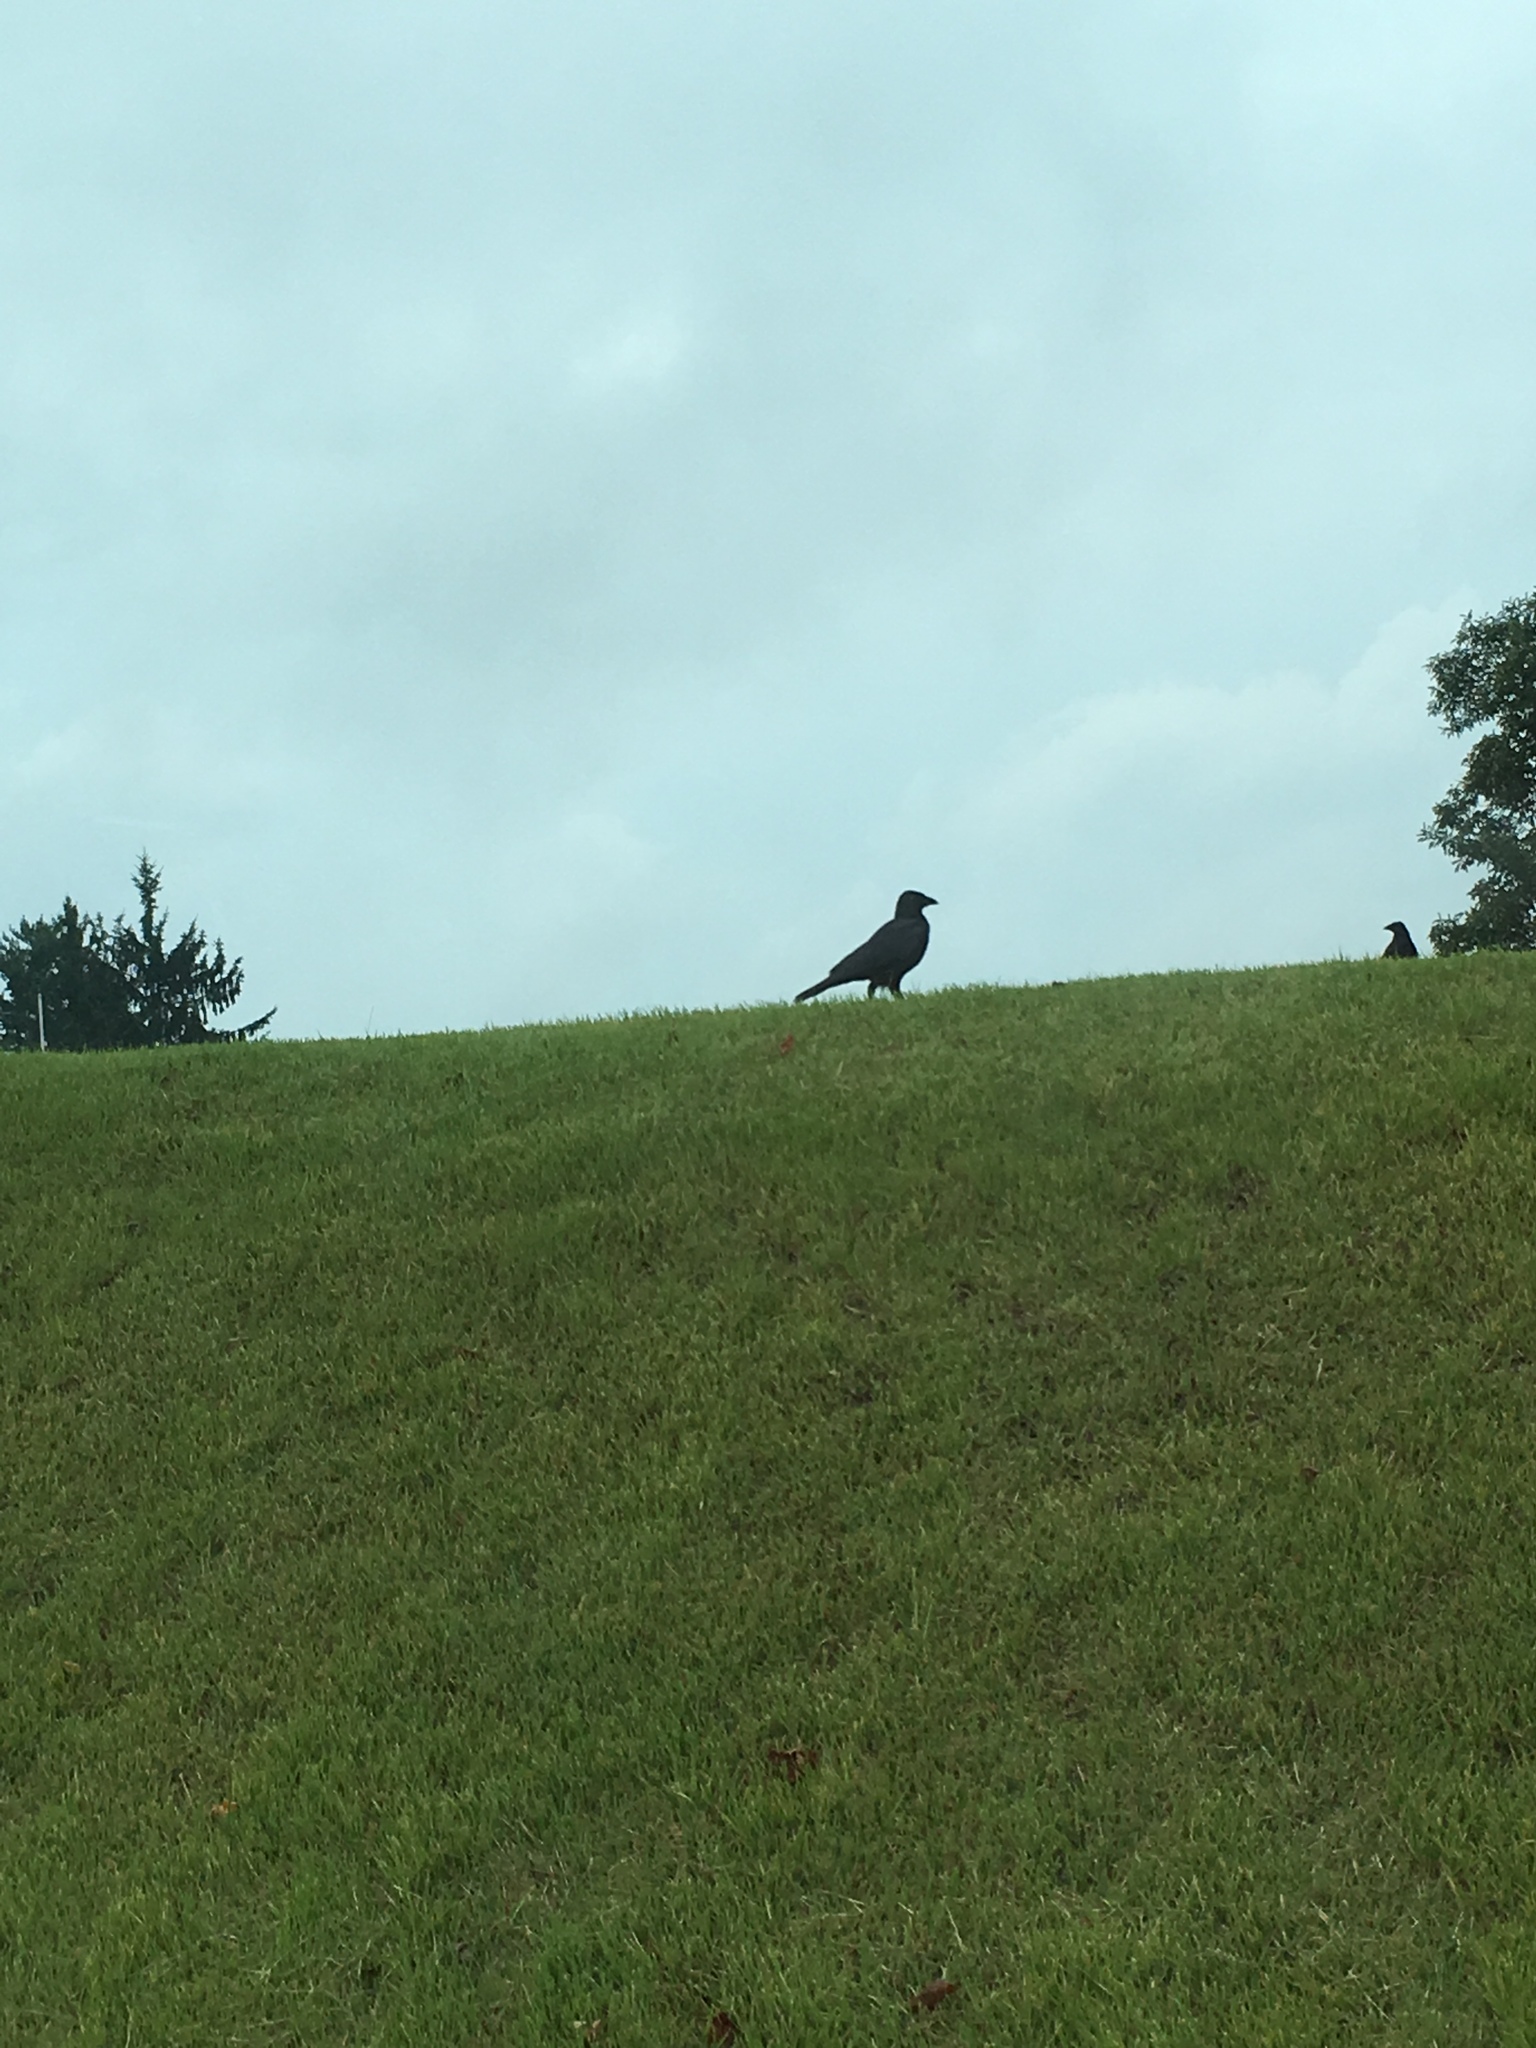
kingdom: Animalia
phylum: Chordata
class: Aves
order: Passeriformes
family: Corvidae
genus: Corvus
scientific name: Corvus brachyrhynchos
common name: American crow
